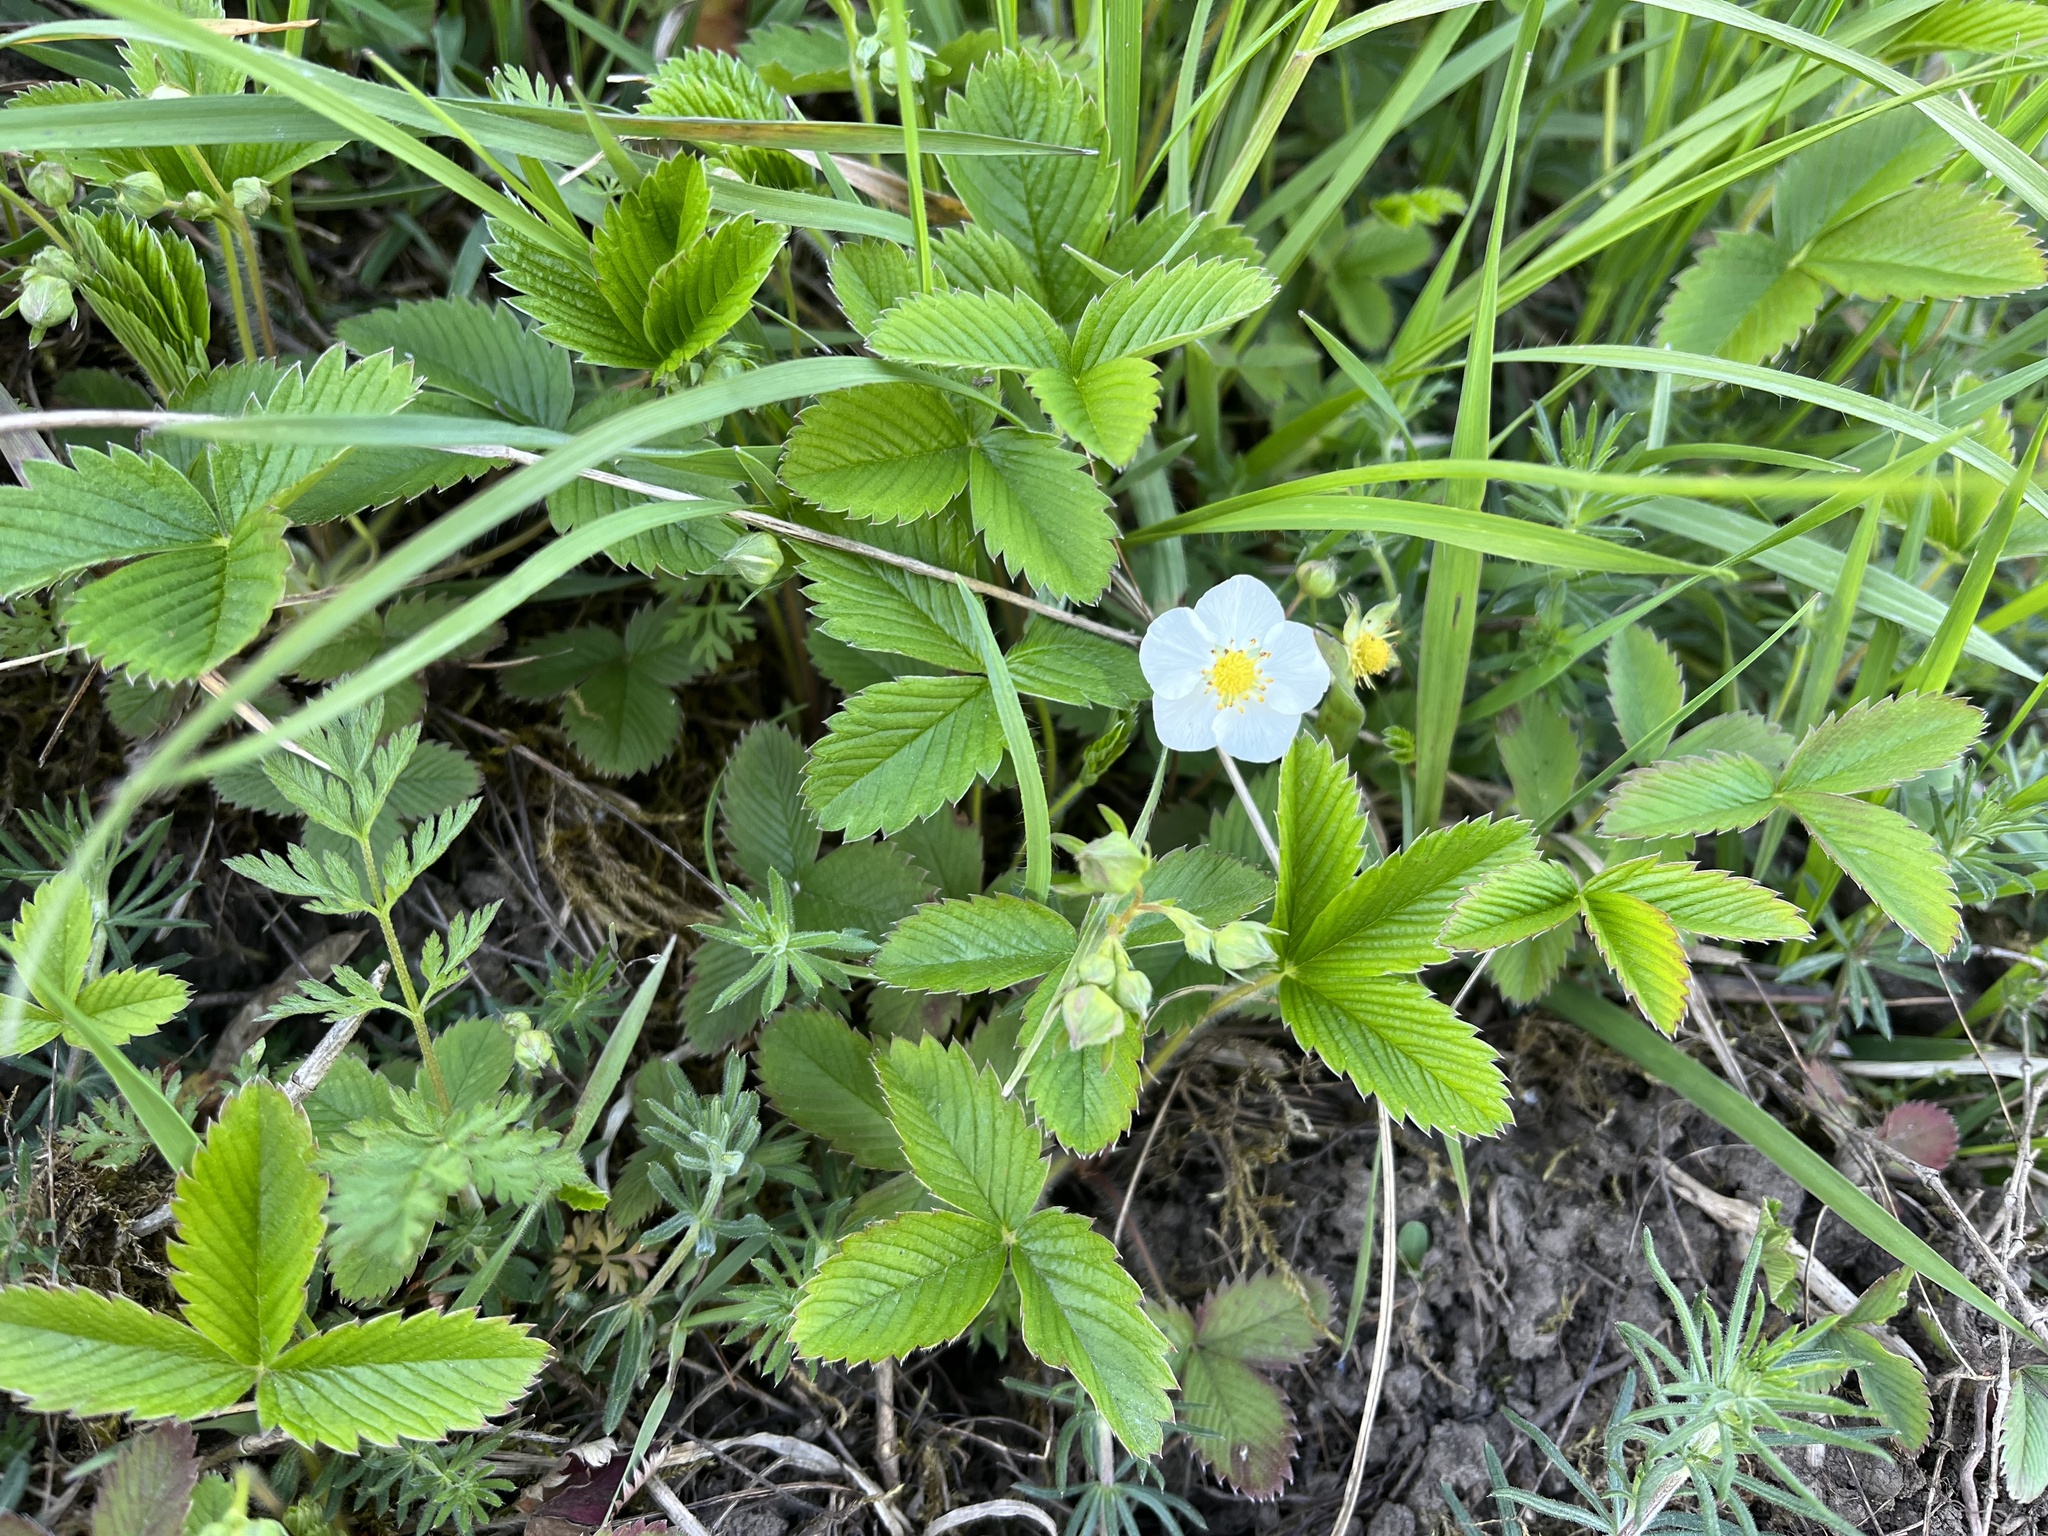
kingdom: Plantae
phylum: Tracheophyta
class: Magnoliopsida
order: Rosales
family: Rosaceae
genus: Fragaria
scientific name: Fragaria viridis
